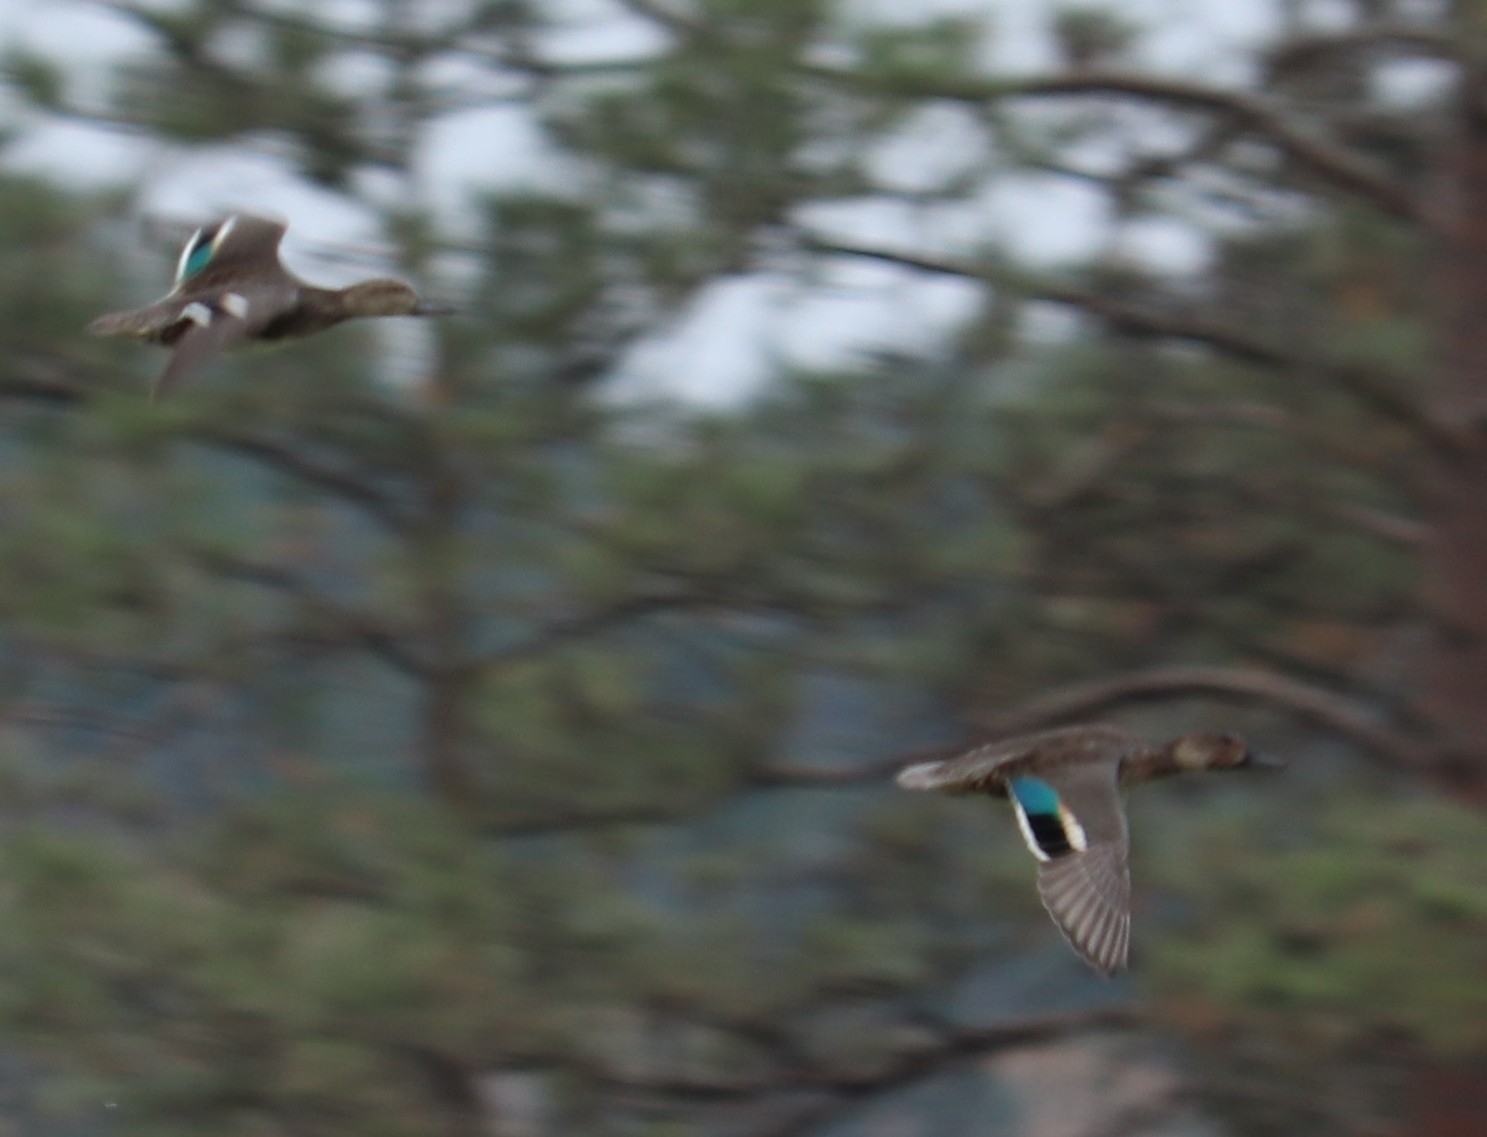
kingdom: Animalia
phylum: Chordata
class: Aves
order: Anseriformes
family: Anatidae
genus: Anas
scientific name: Anas crecca
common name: Eurasian teal
